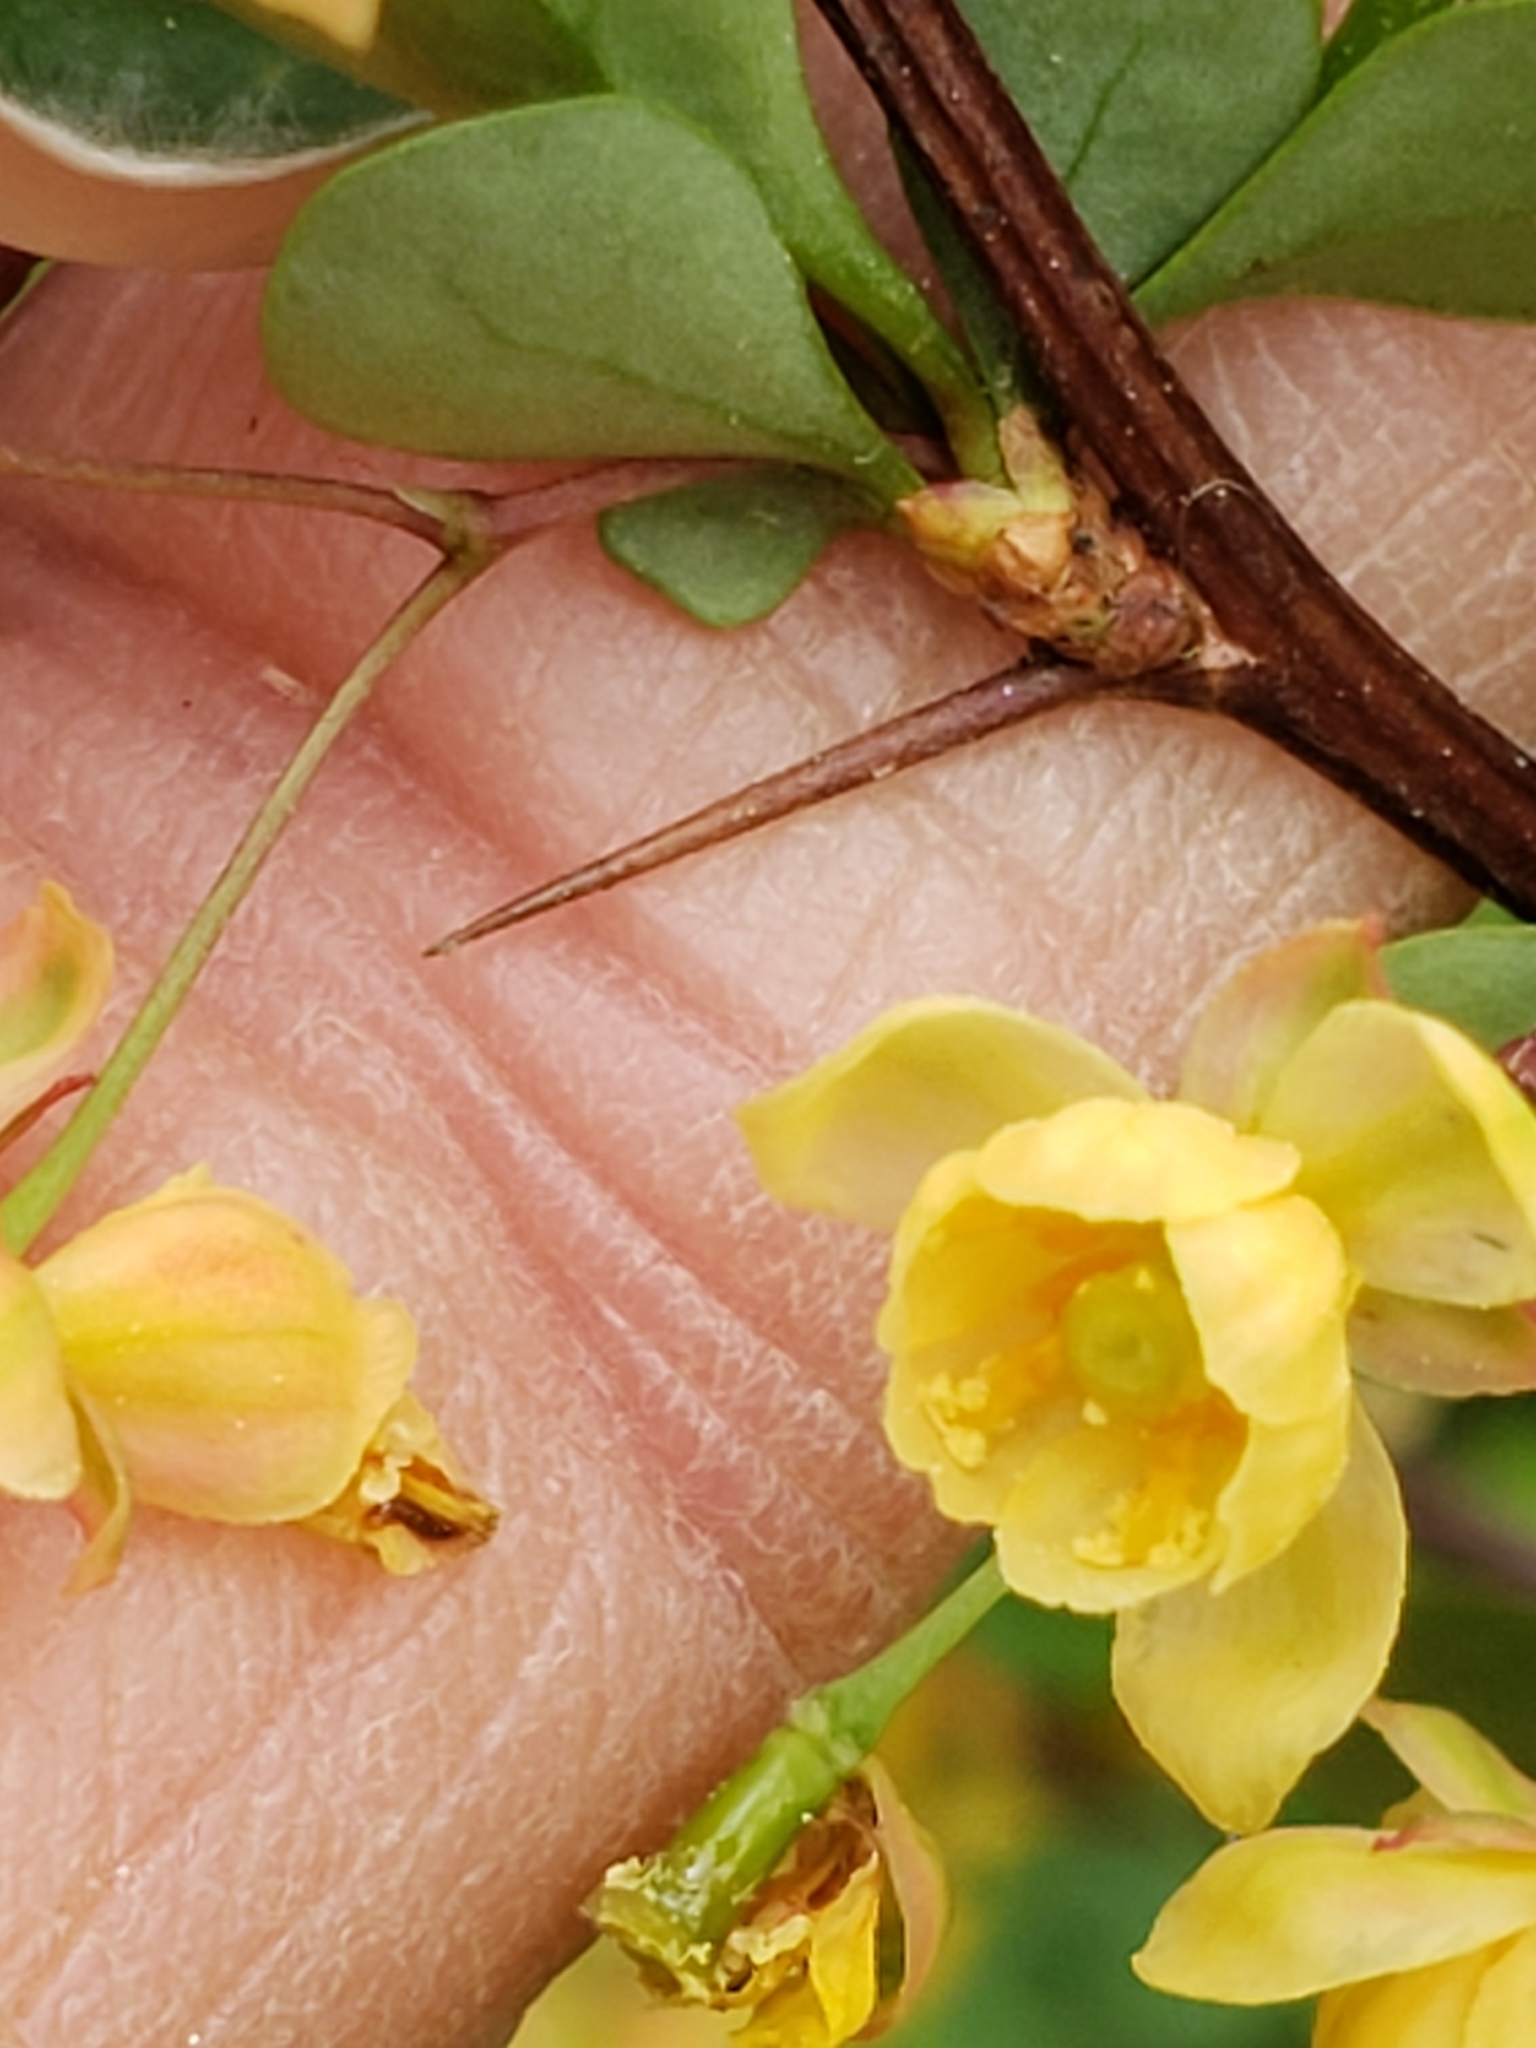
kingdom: Plantae
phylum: Tracheophyta
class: Magnoliopsida
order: Ranunculales
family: Berberidaceae
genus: Berberis
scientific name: Berberis thunbergii
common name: Japanese barberry
